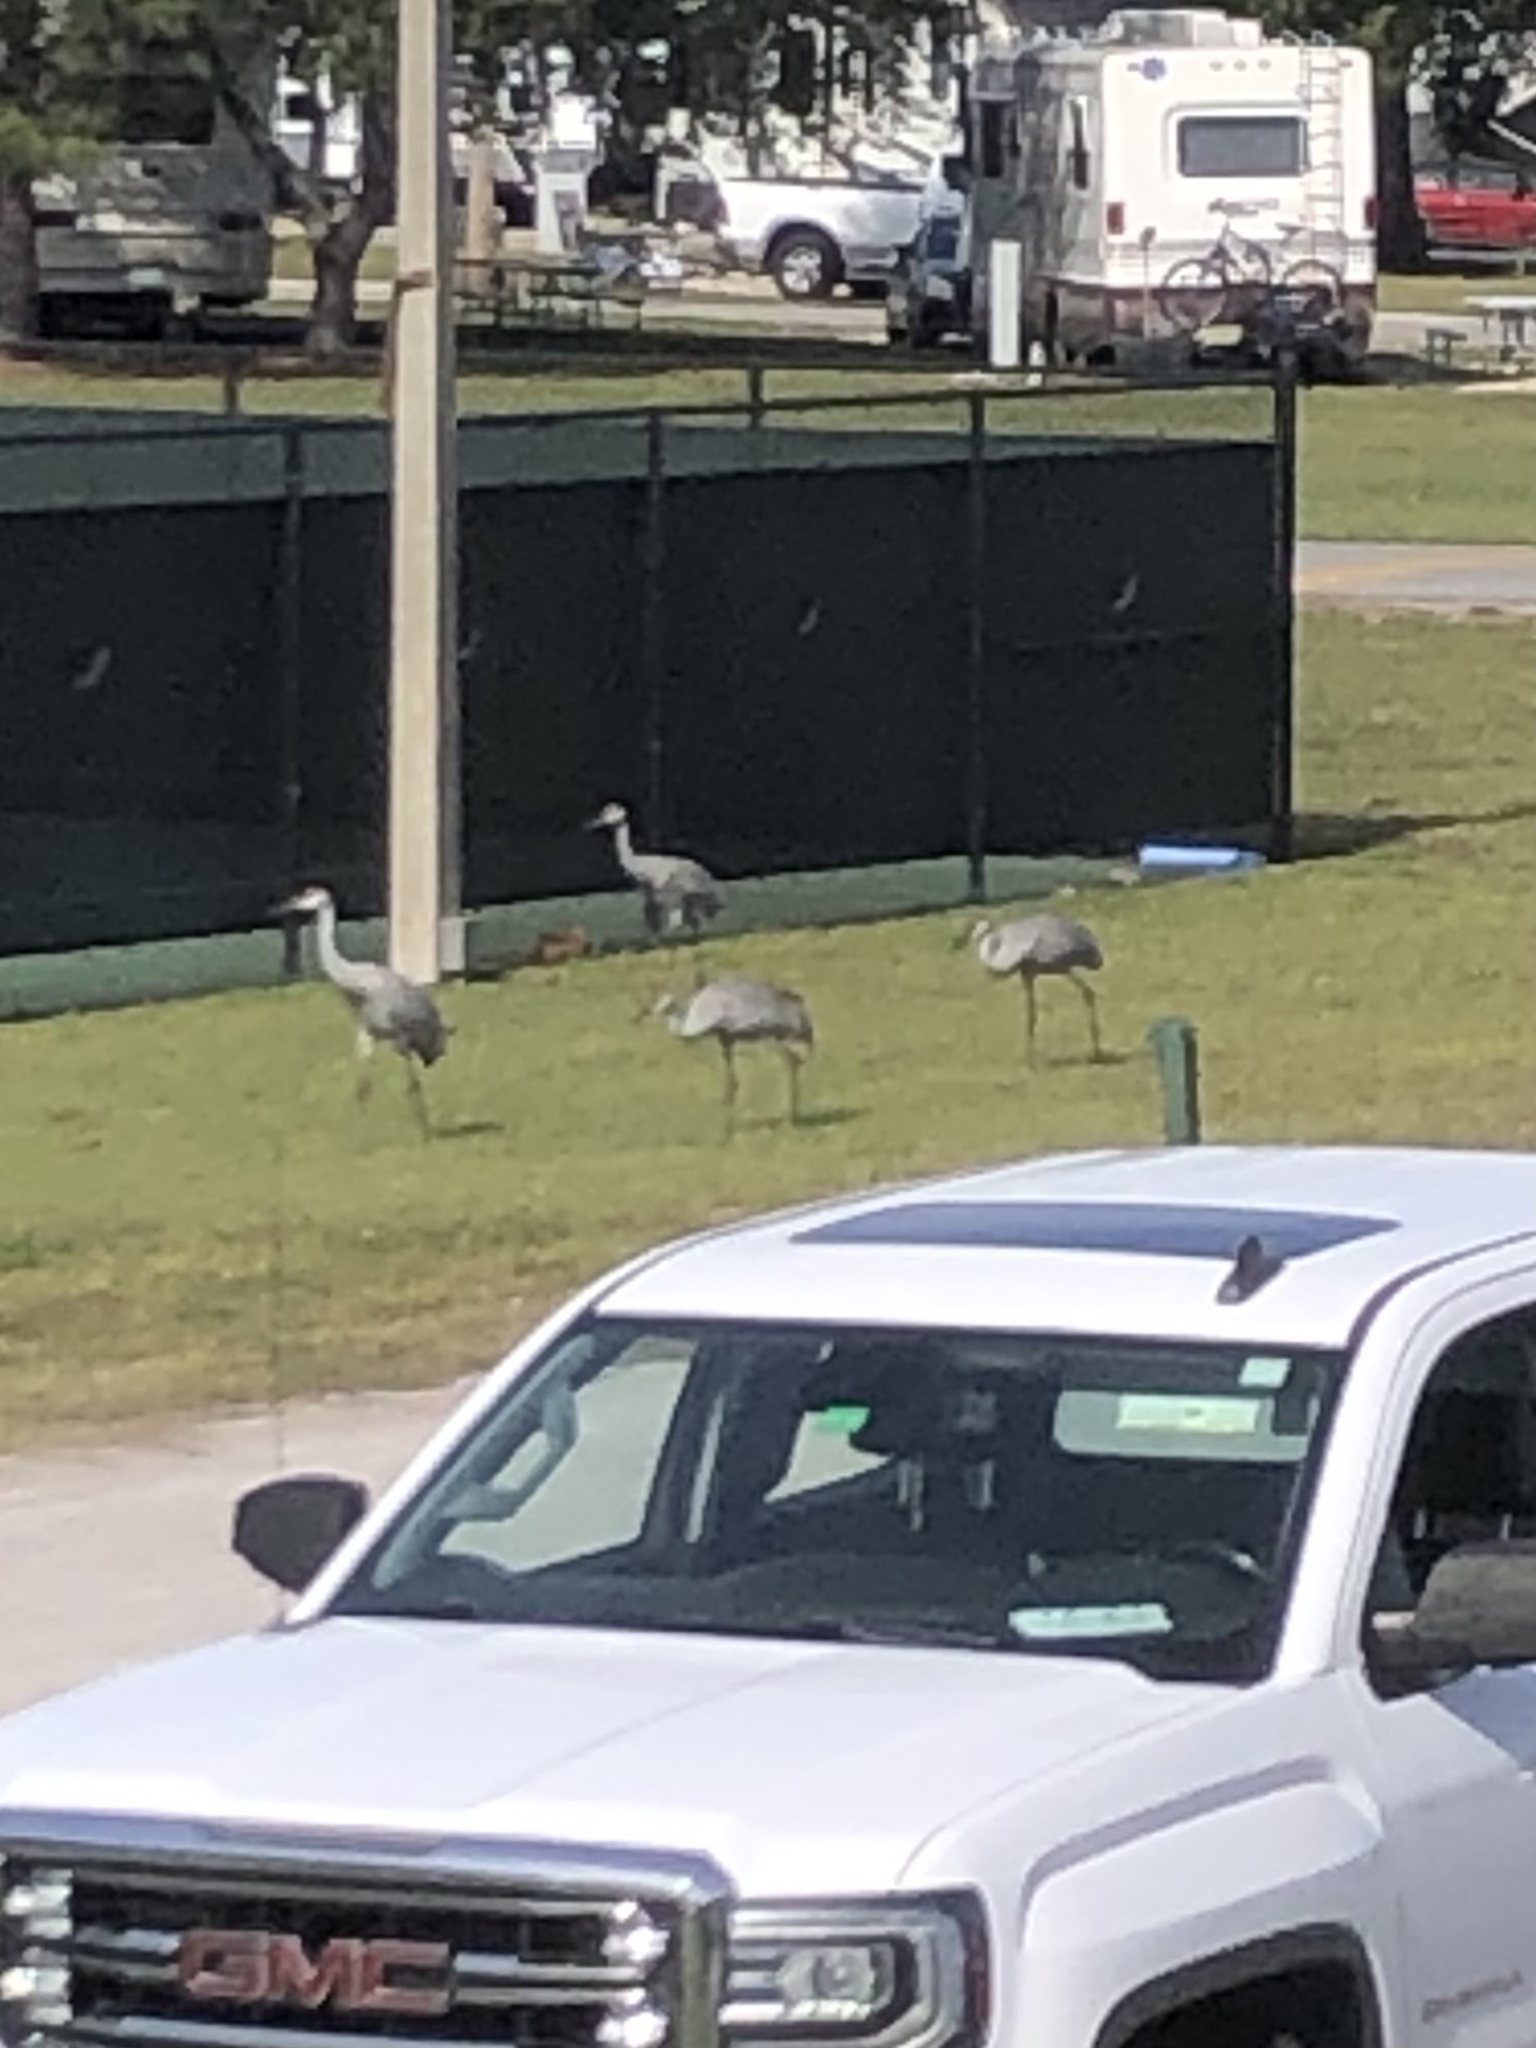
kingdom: Animalia
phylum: Chordata
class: Aves
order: Gruiformes
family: Gruidae
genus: Grus
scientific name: Grus canadensis
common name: Sandhill crane
